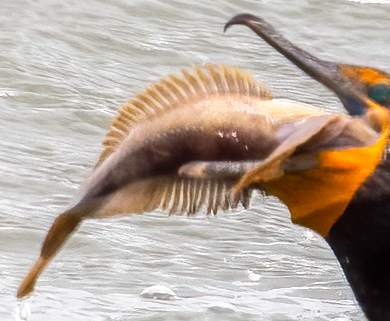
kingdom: Animalia
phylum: Chordata
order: Batrachoidiformes
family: Batrachoididae
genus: Porichthys
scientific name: Porichthys notatus
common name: Plainfin midshipman
